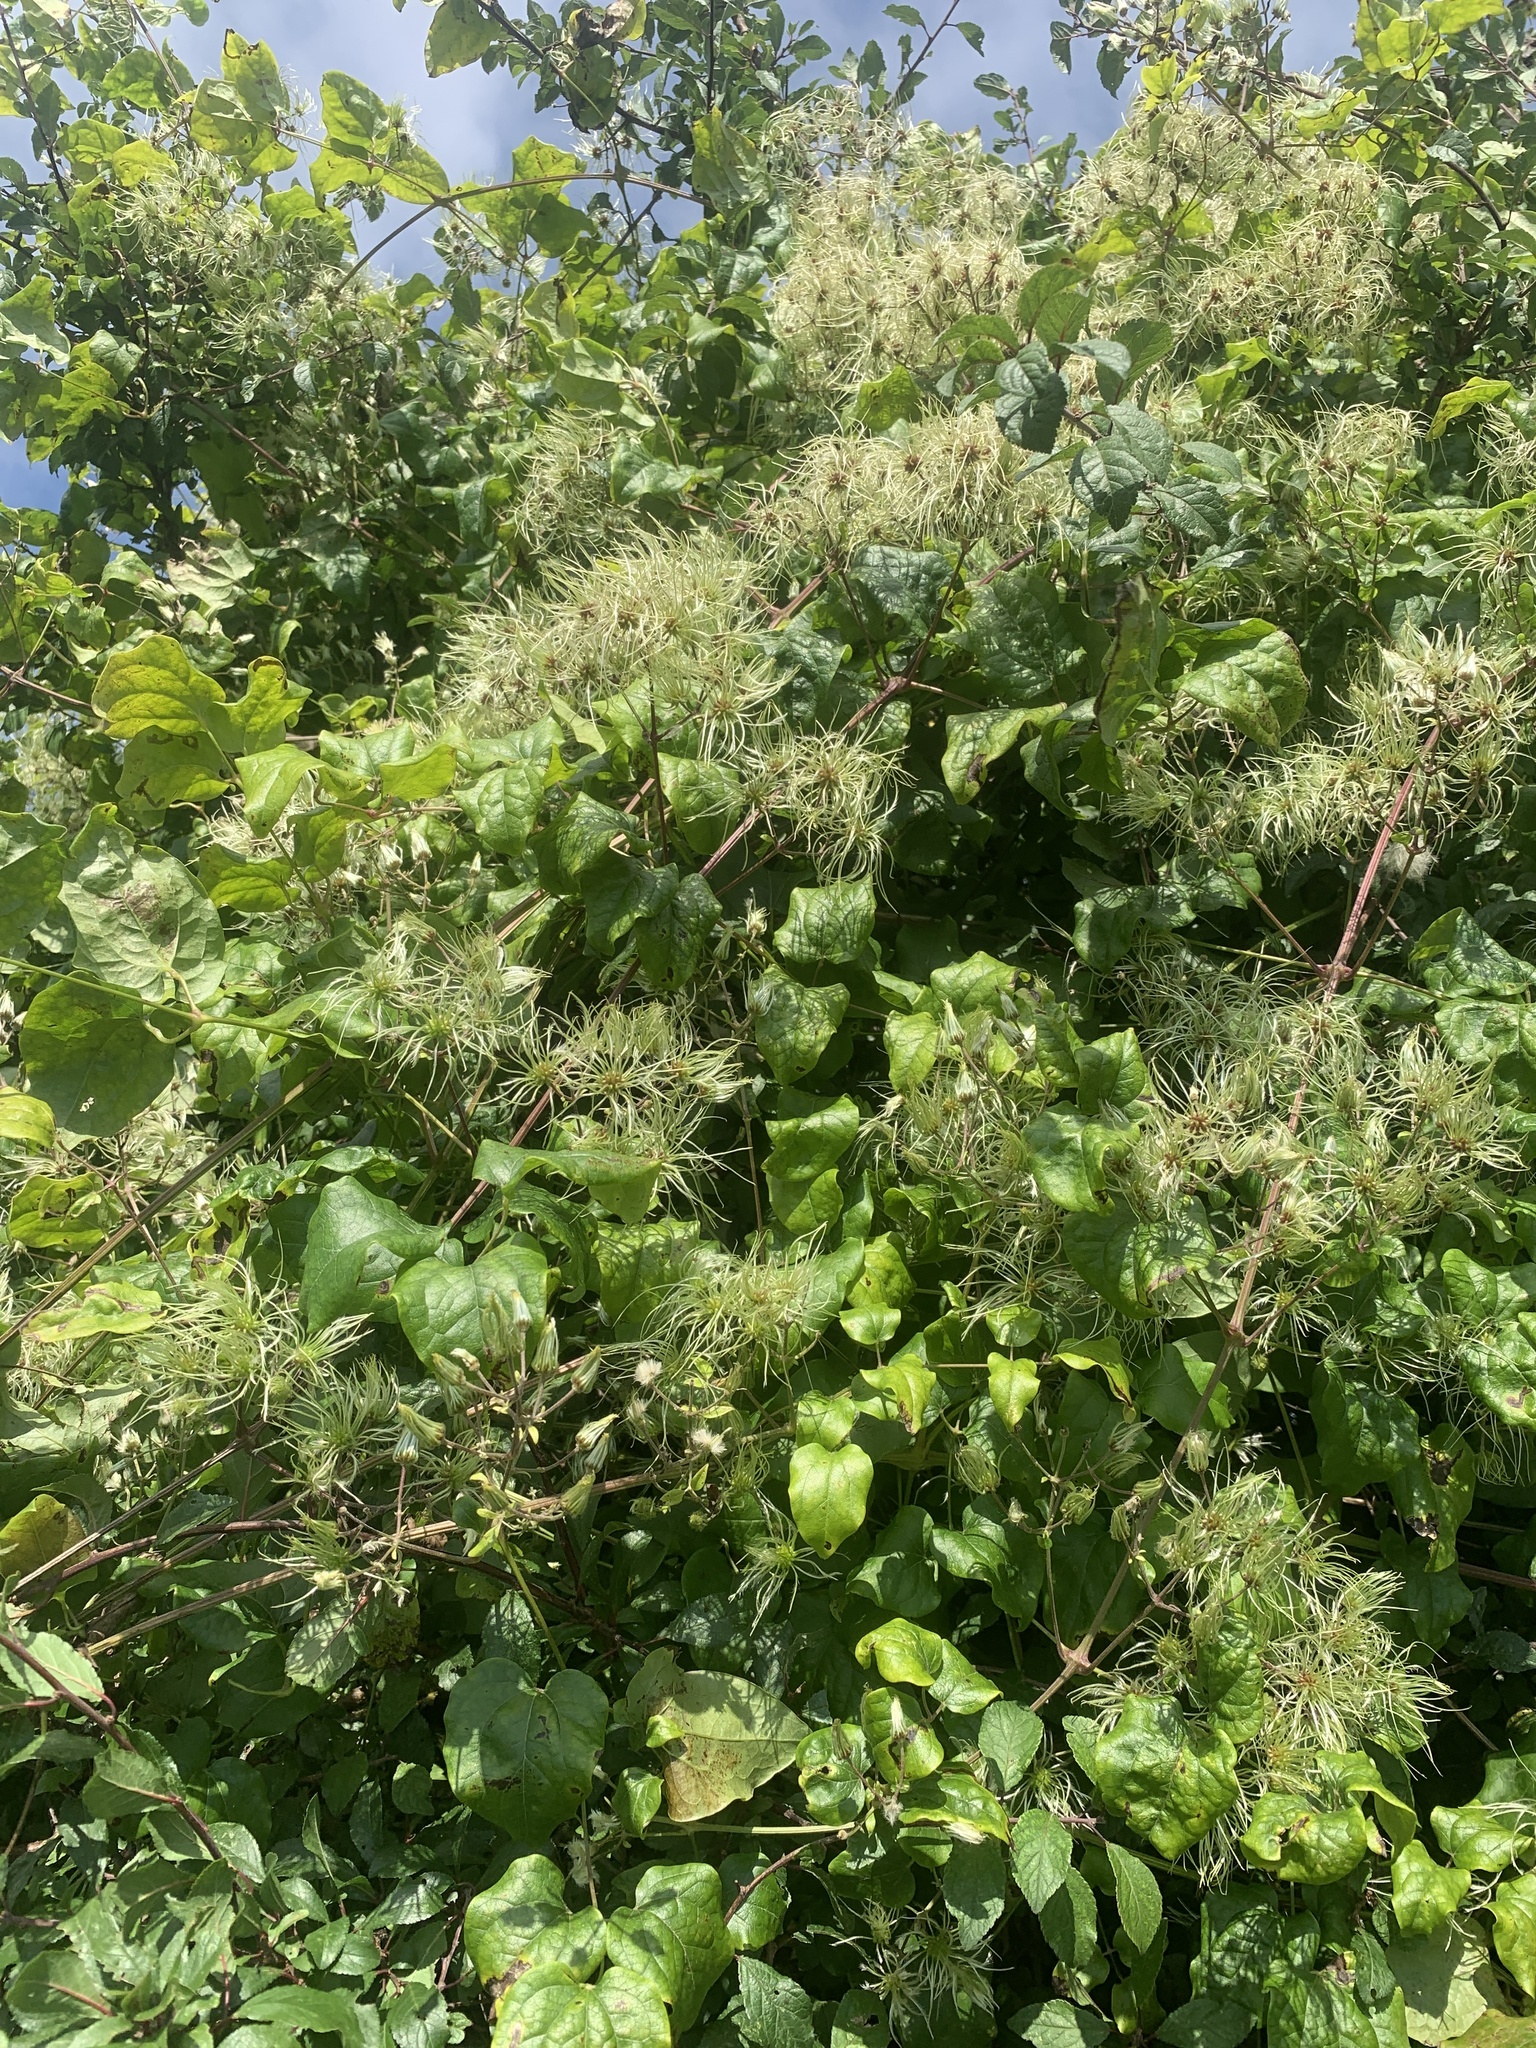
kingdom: Plantae
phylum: Tracheophyta
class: Magnoliopsida
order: Ranunculales
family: Ranunculaceae
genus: Clematis
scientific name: Clematis vitalba
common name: Evergreen clematis
